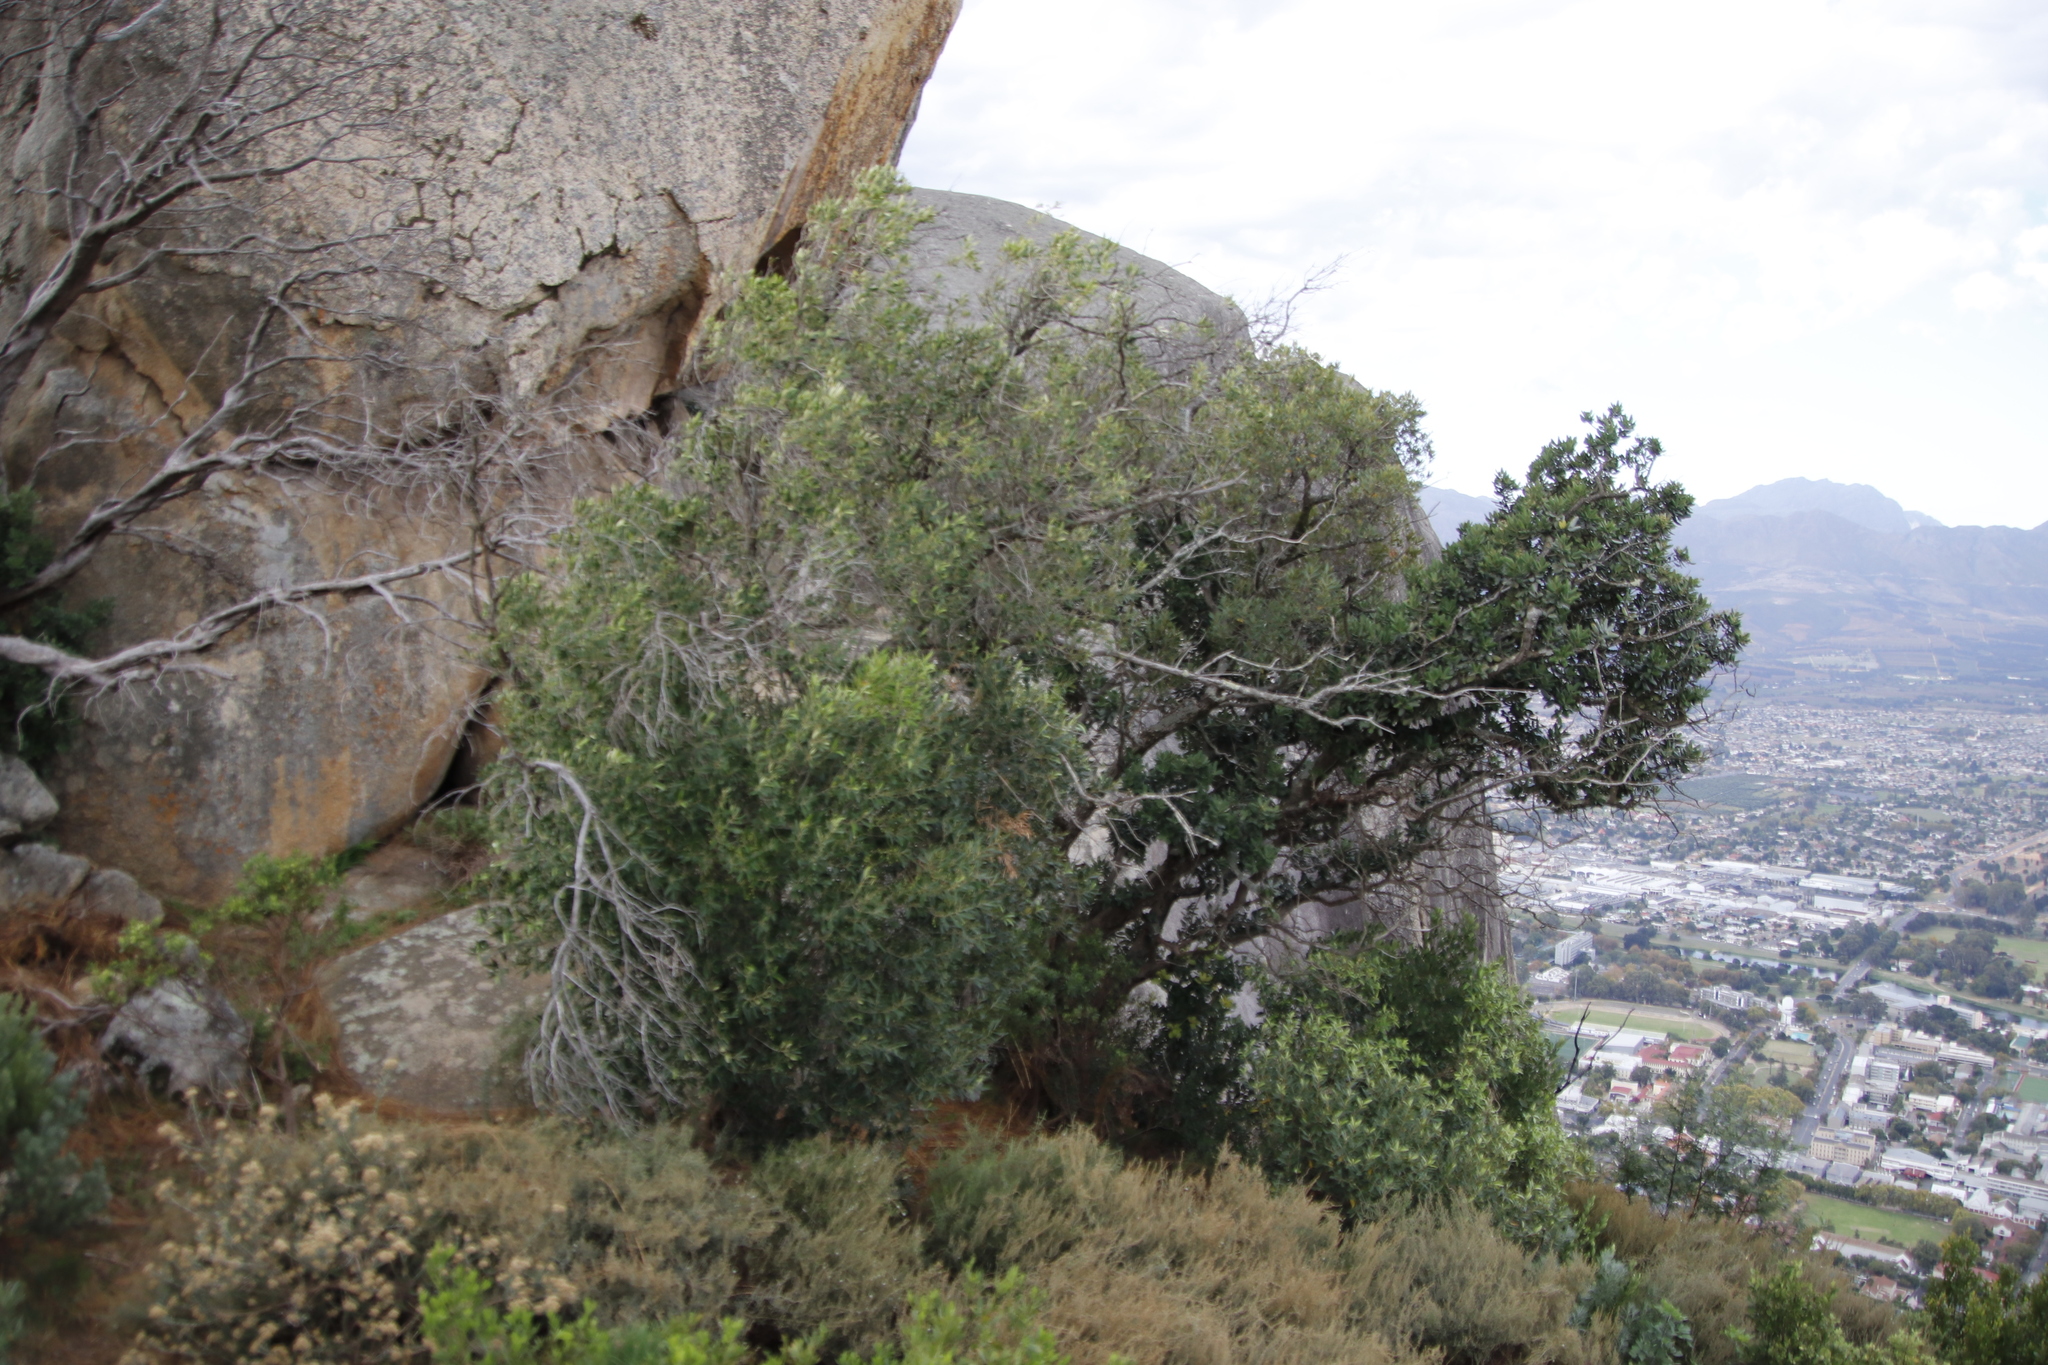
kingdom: Plantae
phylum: Tracheophyta
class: Magnoliopsida
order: Lamiales
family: Oleaceae
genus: Olea
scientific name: Olea europaea
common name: Olive
